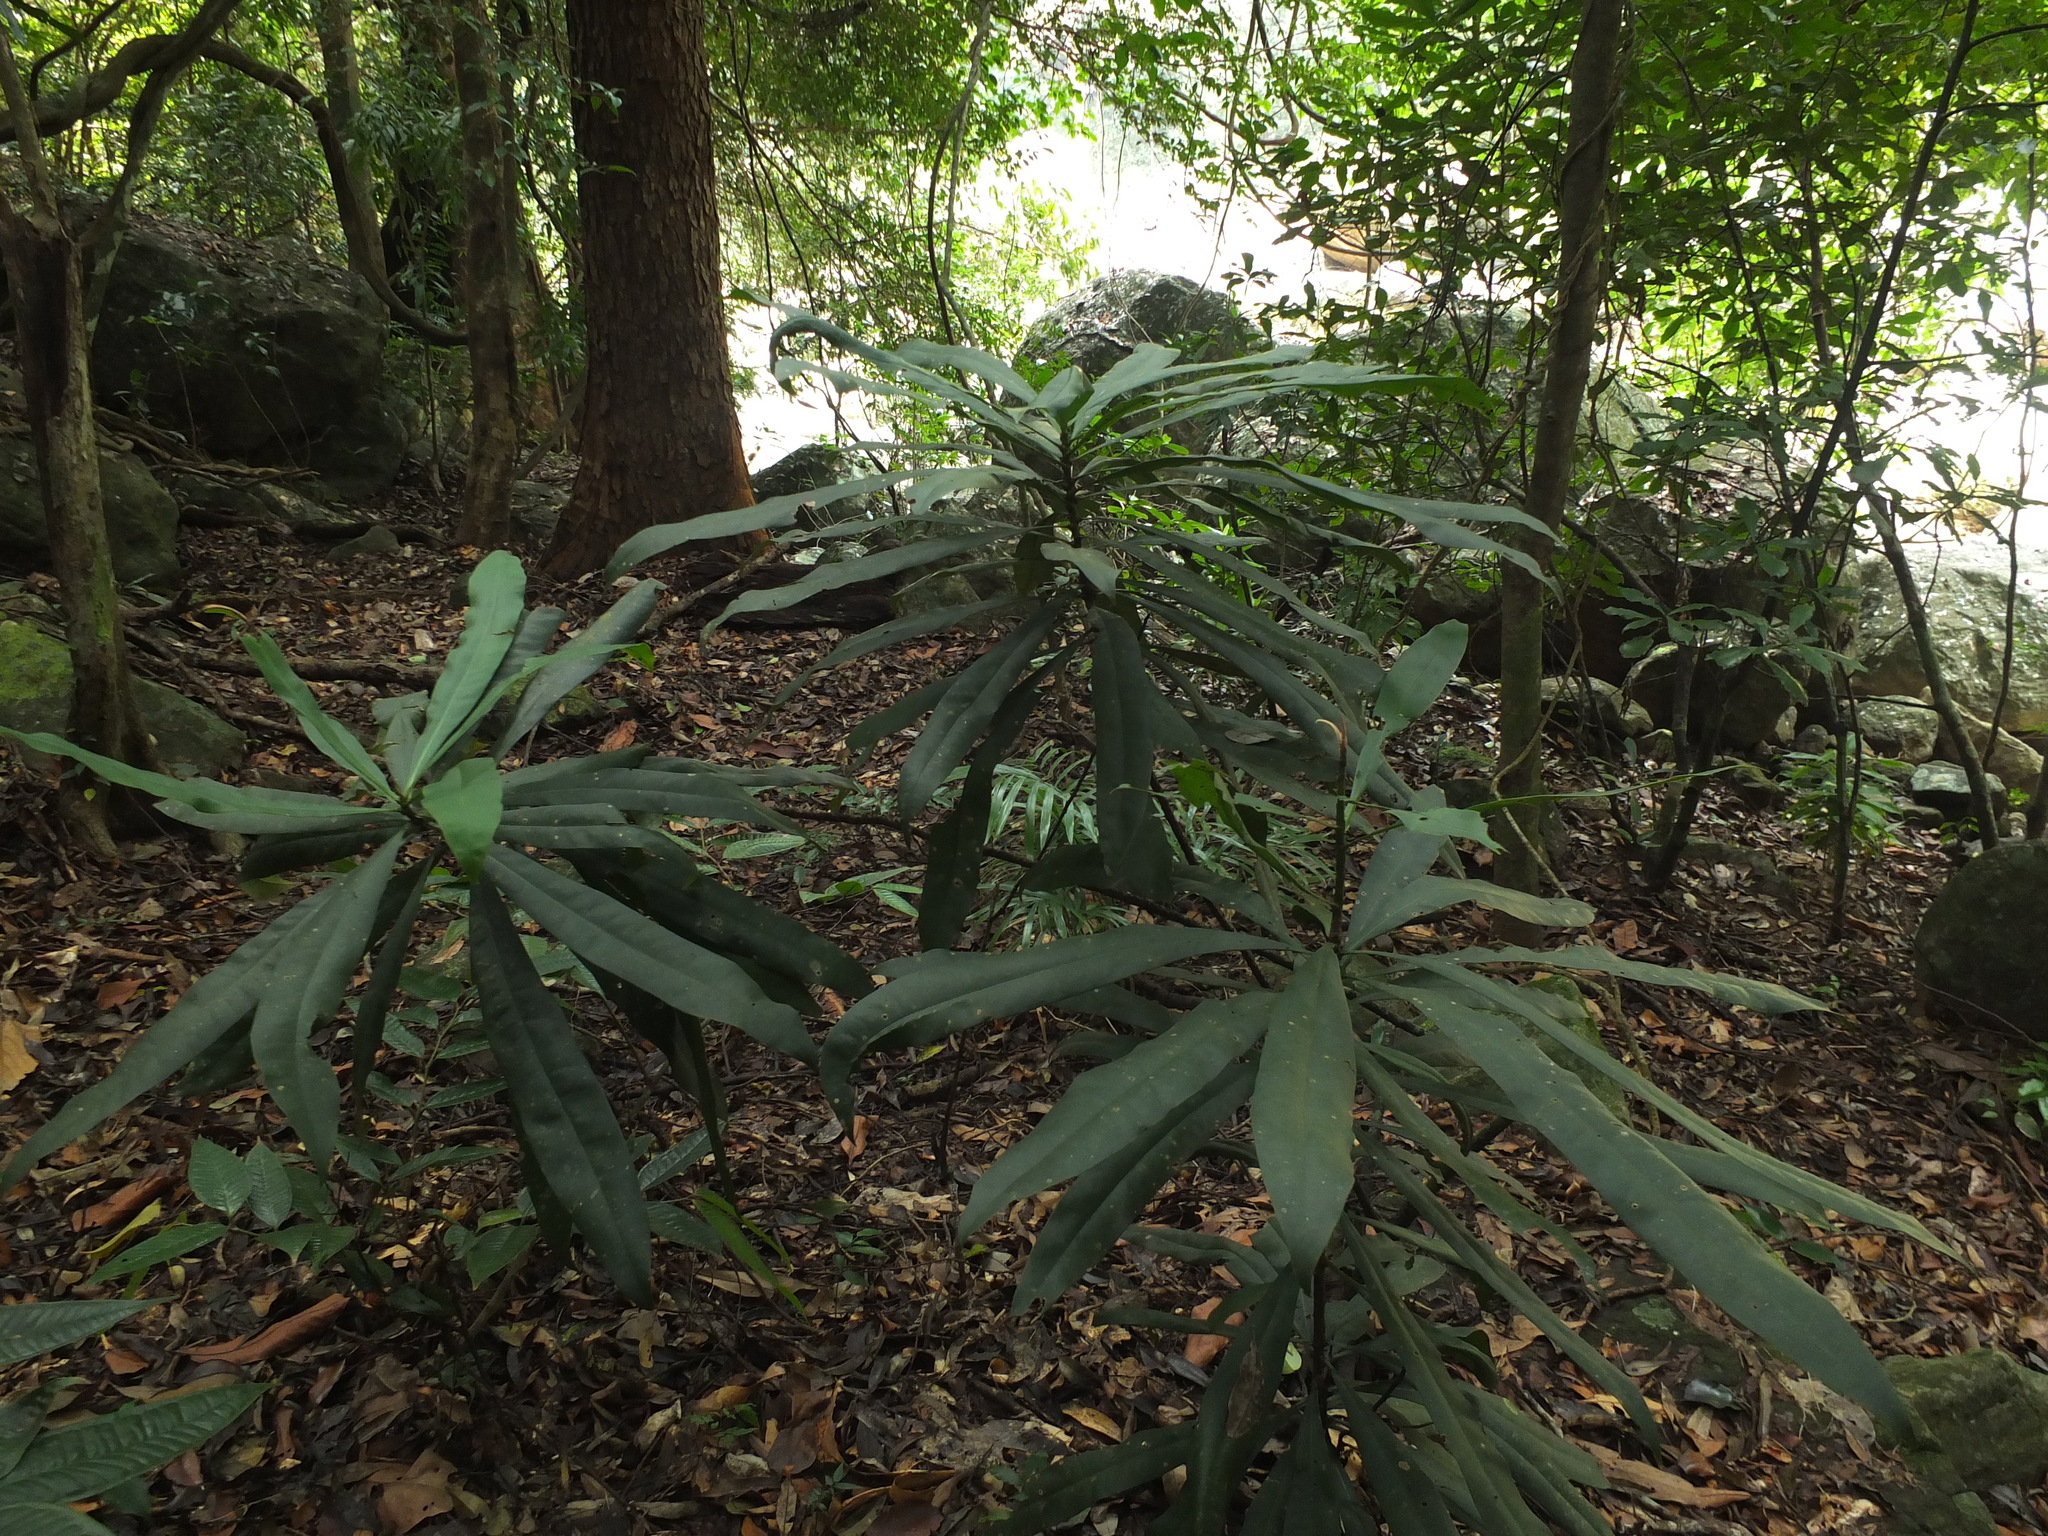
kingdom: Plantae
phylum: Tracheophyta
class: Magnoliopsida
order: Caryophyllales
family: Ancistrocladaceae
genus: Ancistrocladus
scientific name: Ancistrocladus heyneanus
